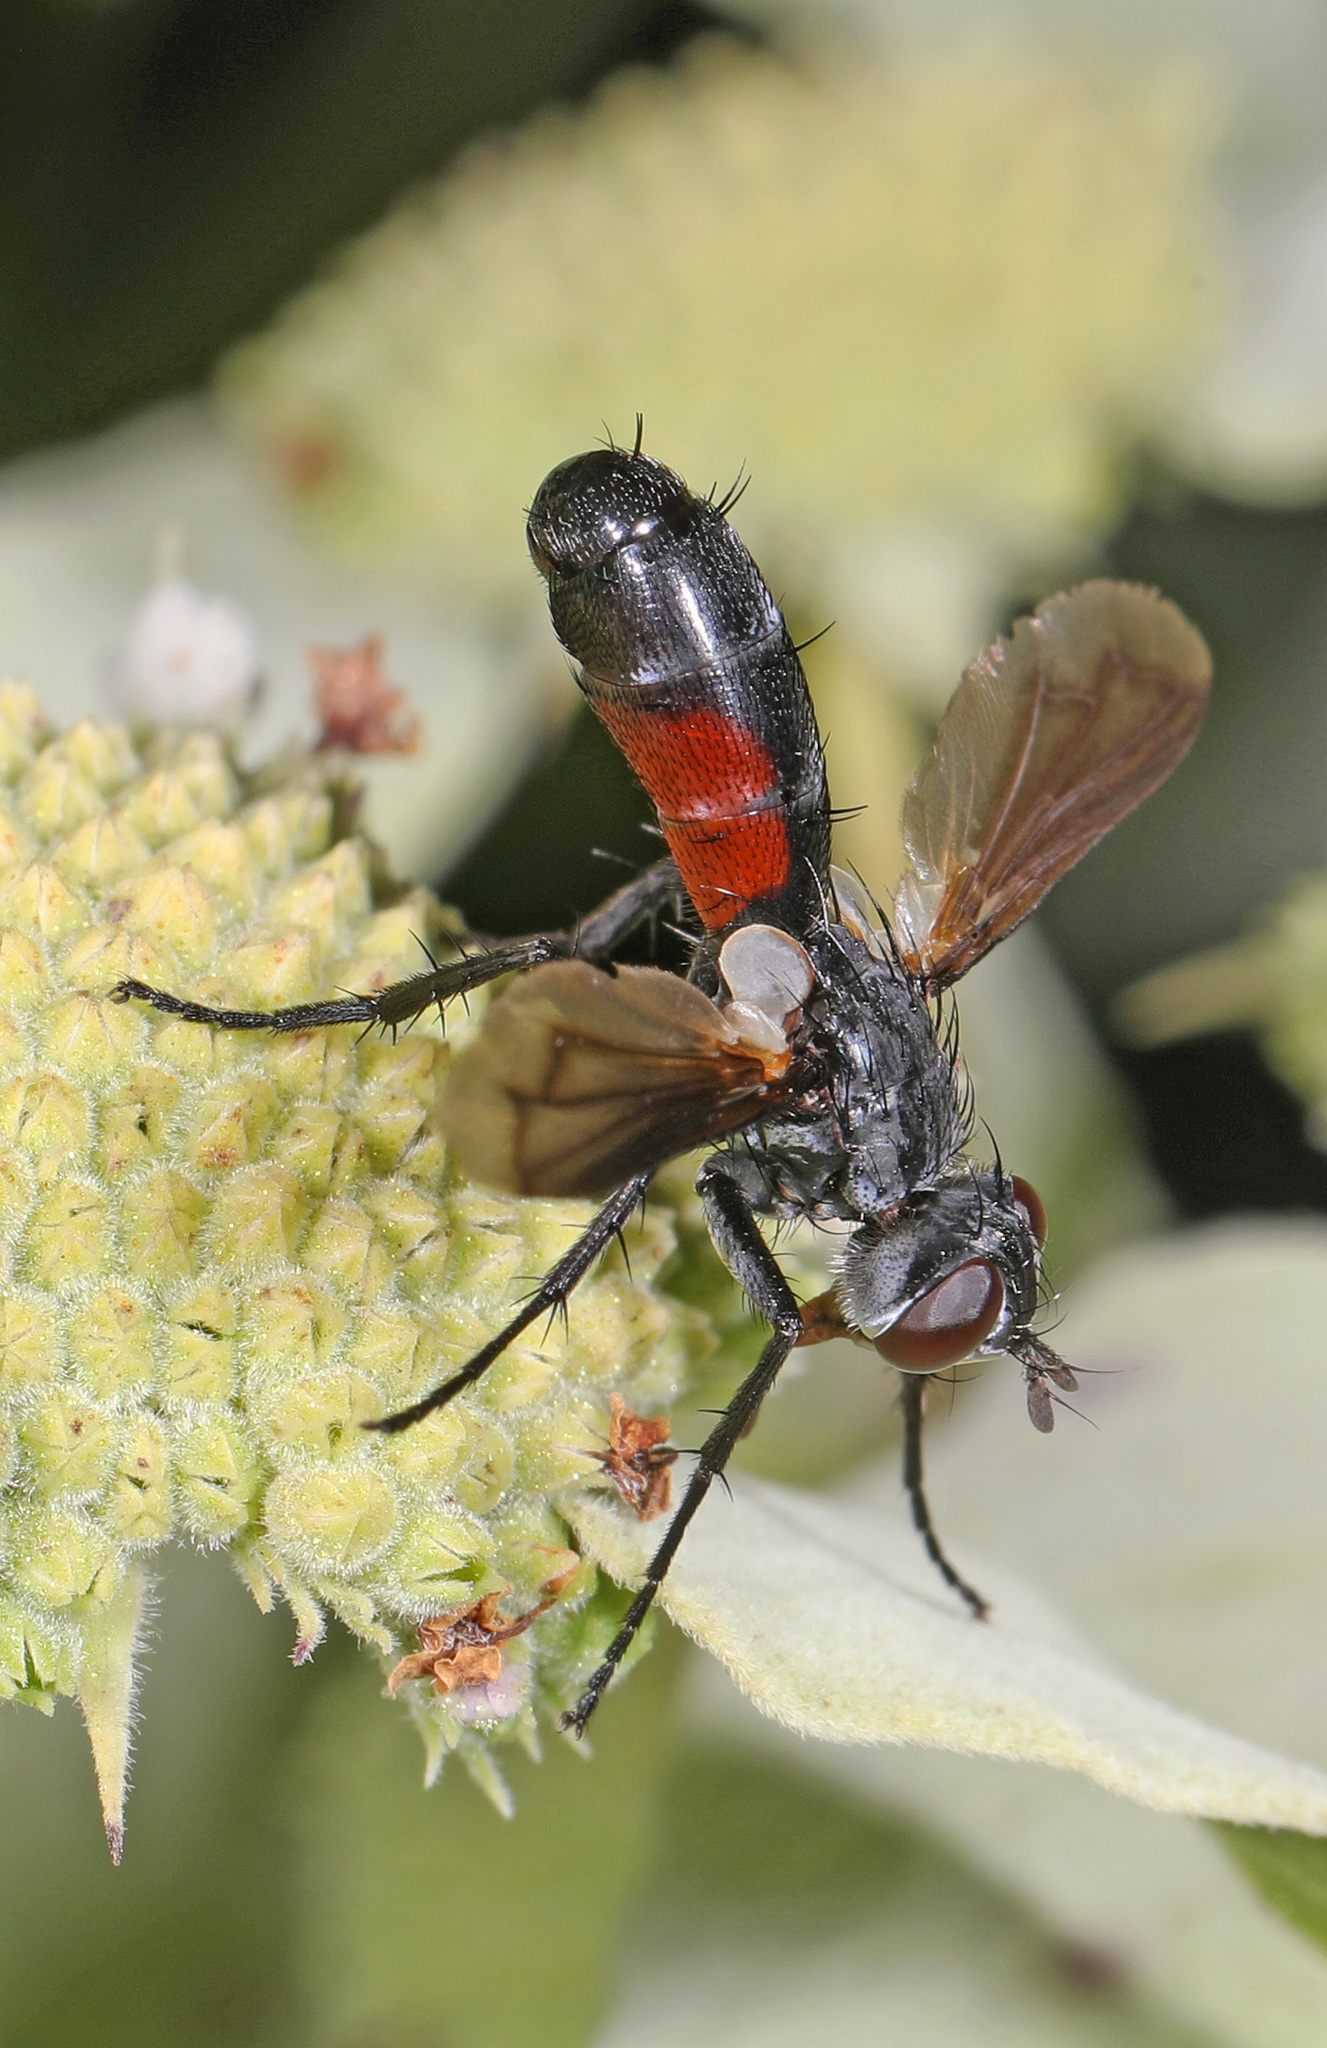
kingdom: Animalia
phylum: Arthropoda
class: Insecta
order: Diptera
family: Tachinidae
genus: Cylindromyia
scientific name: Cylindromyia
